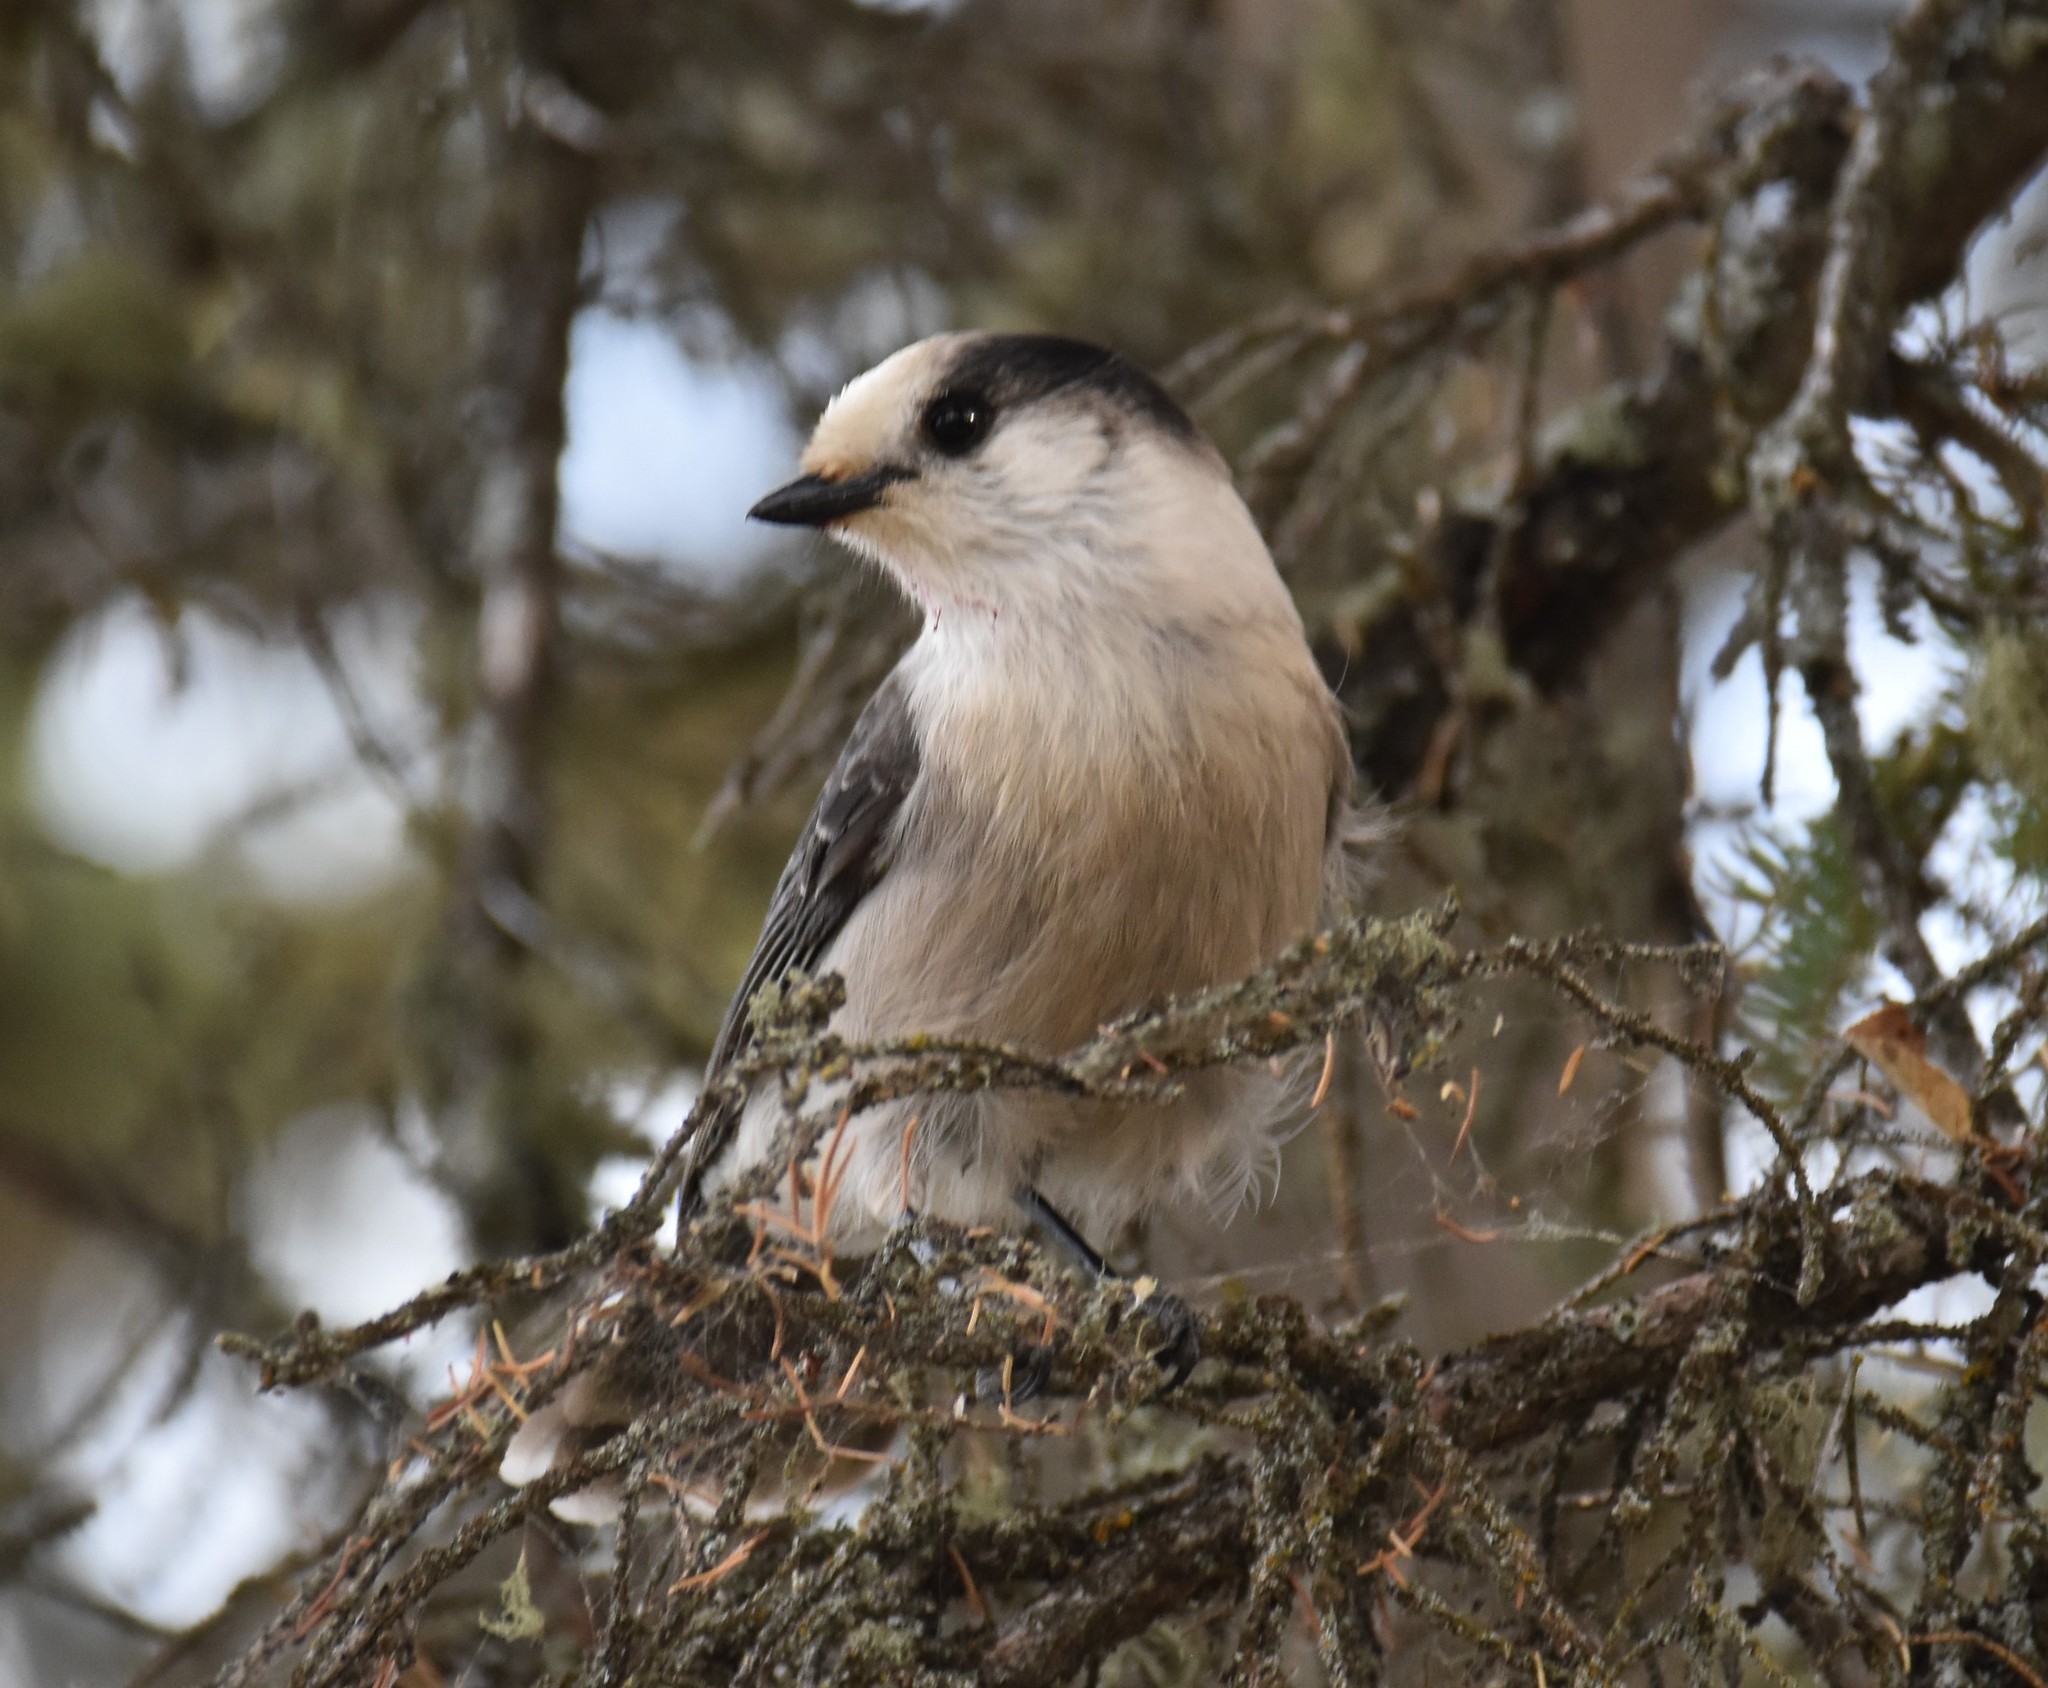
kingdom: Animalia
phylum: Chordata
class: Aves
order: Passeriformes
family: Corvidae
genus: Perisoreus
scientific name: Perisoreus canadensis
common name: Gray jay
